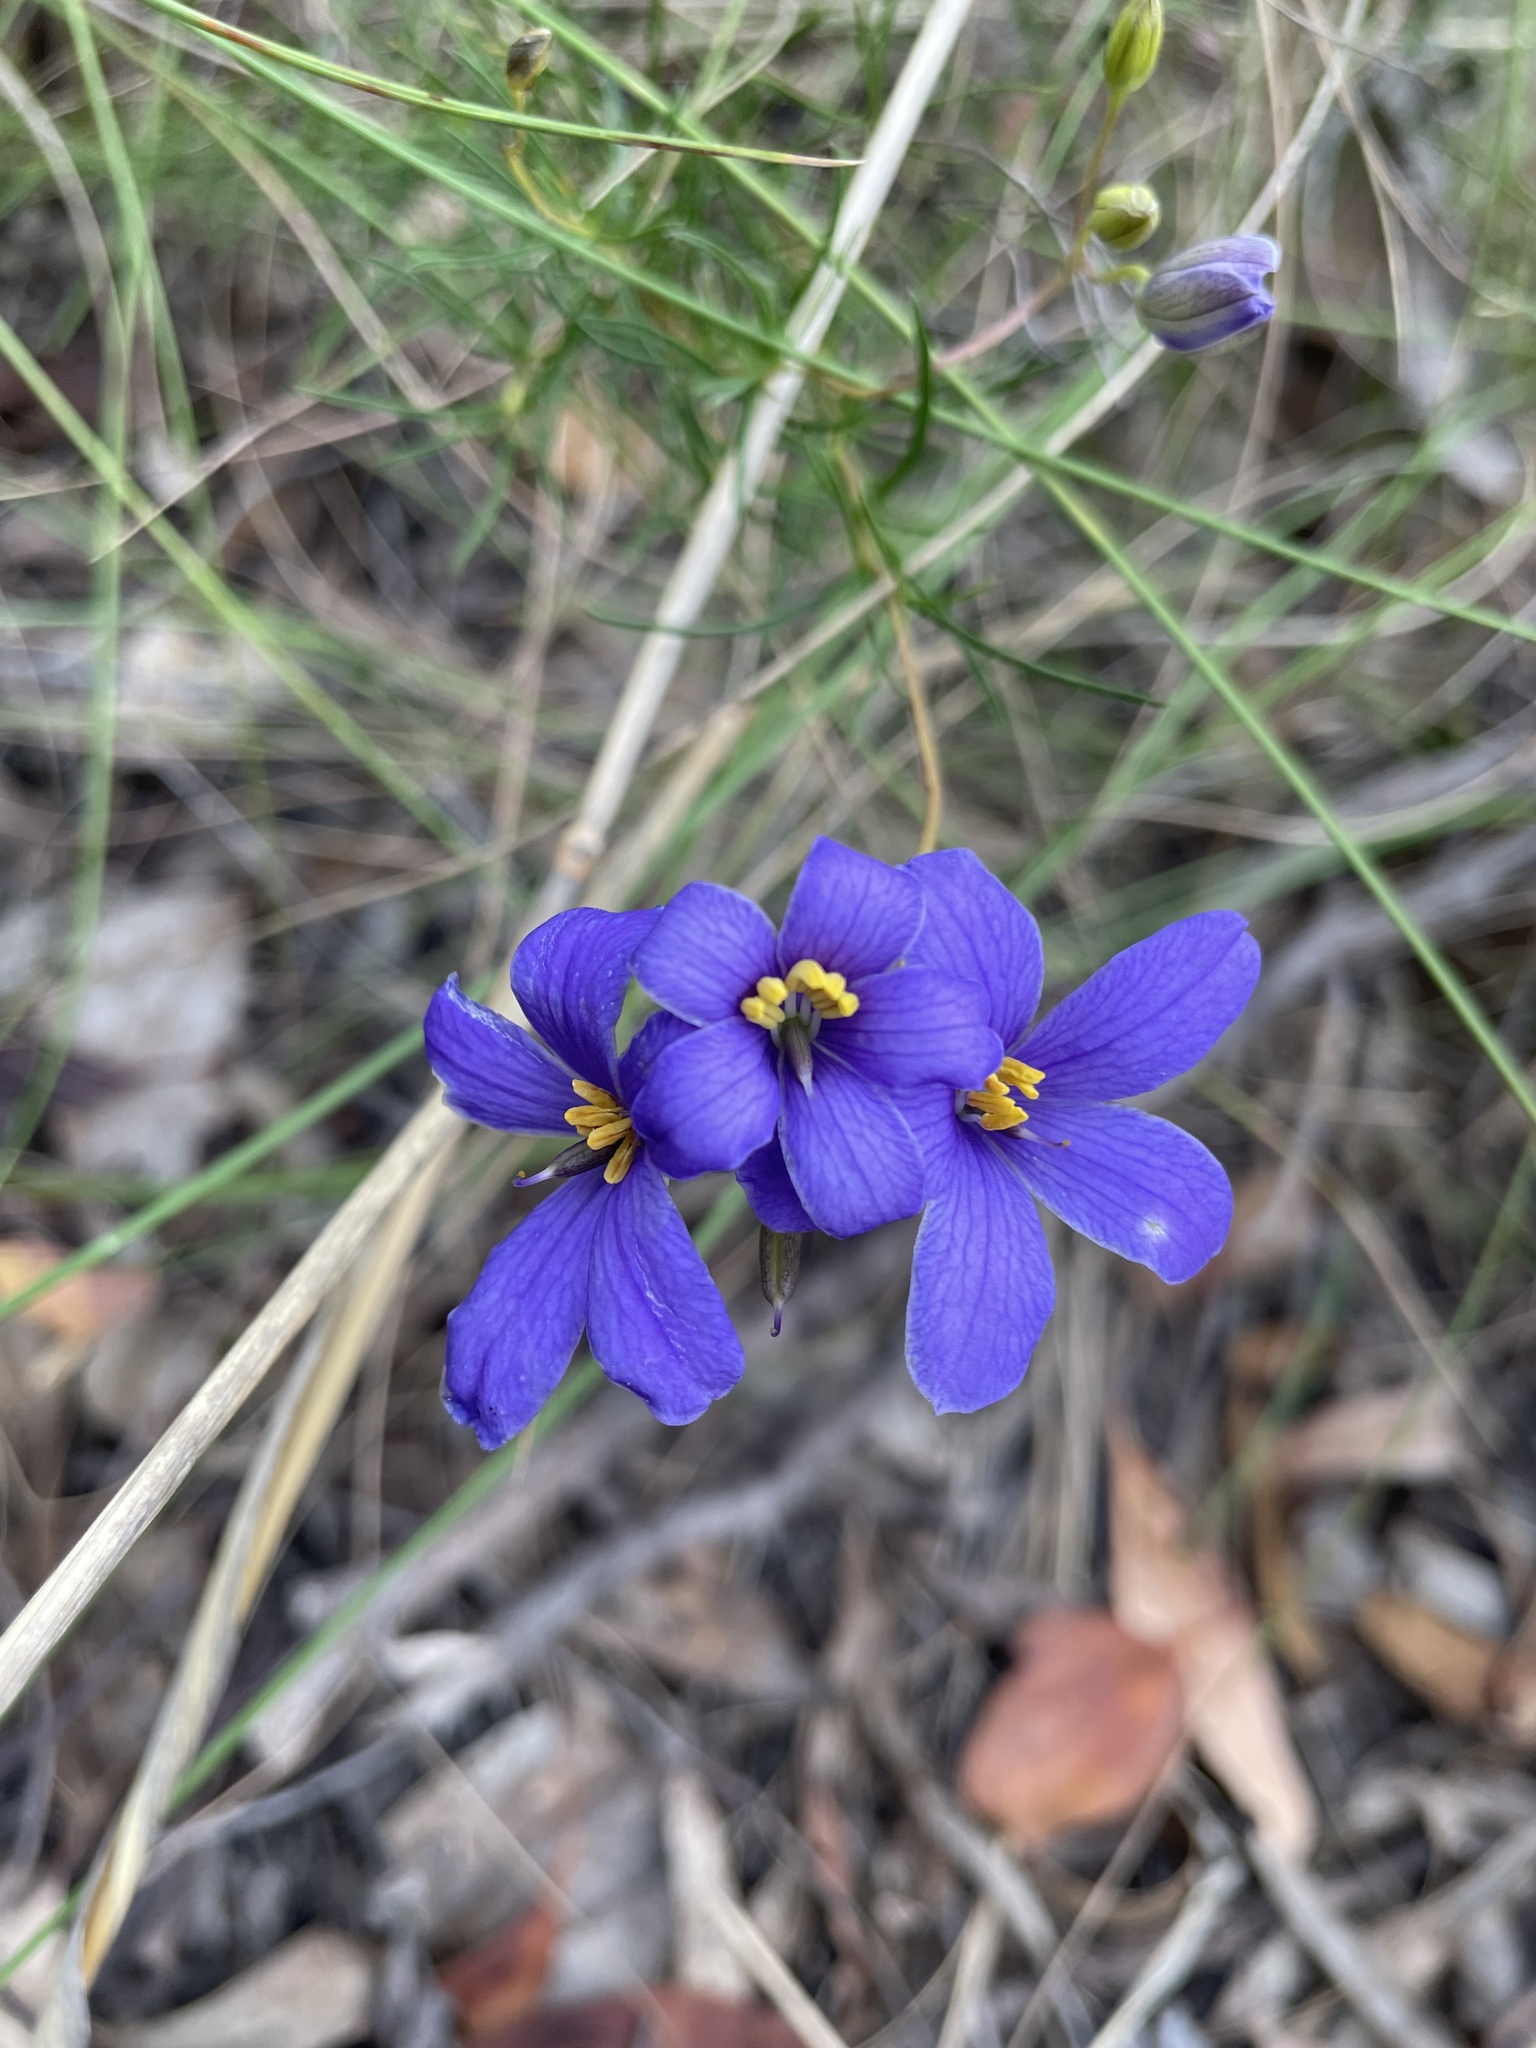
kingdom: Plantae
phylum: Tracheophyta
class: Magnoliopsida
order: Apiales
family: Pittosporaceae
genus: Cheiranthera
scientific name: Cheiranthera linearis
